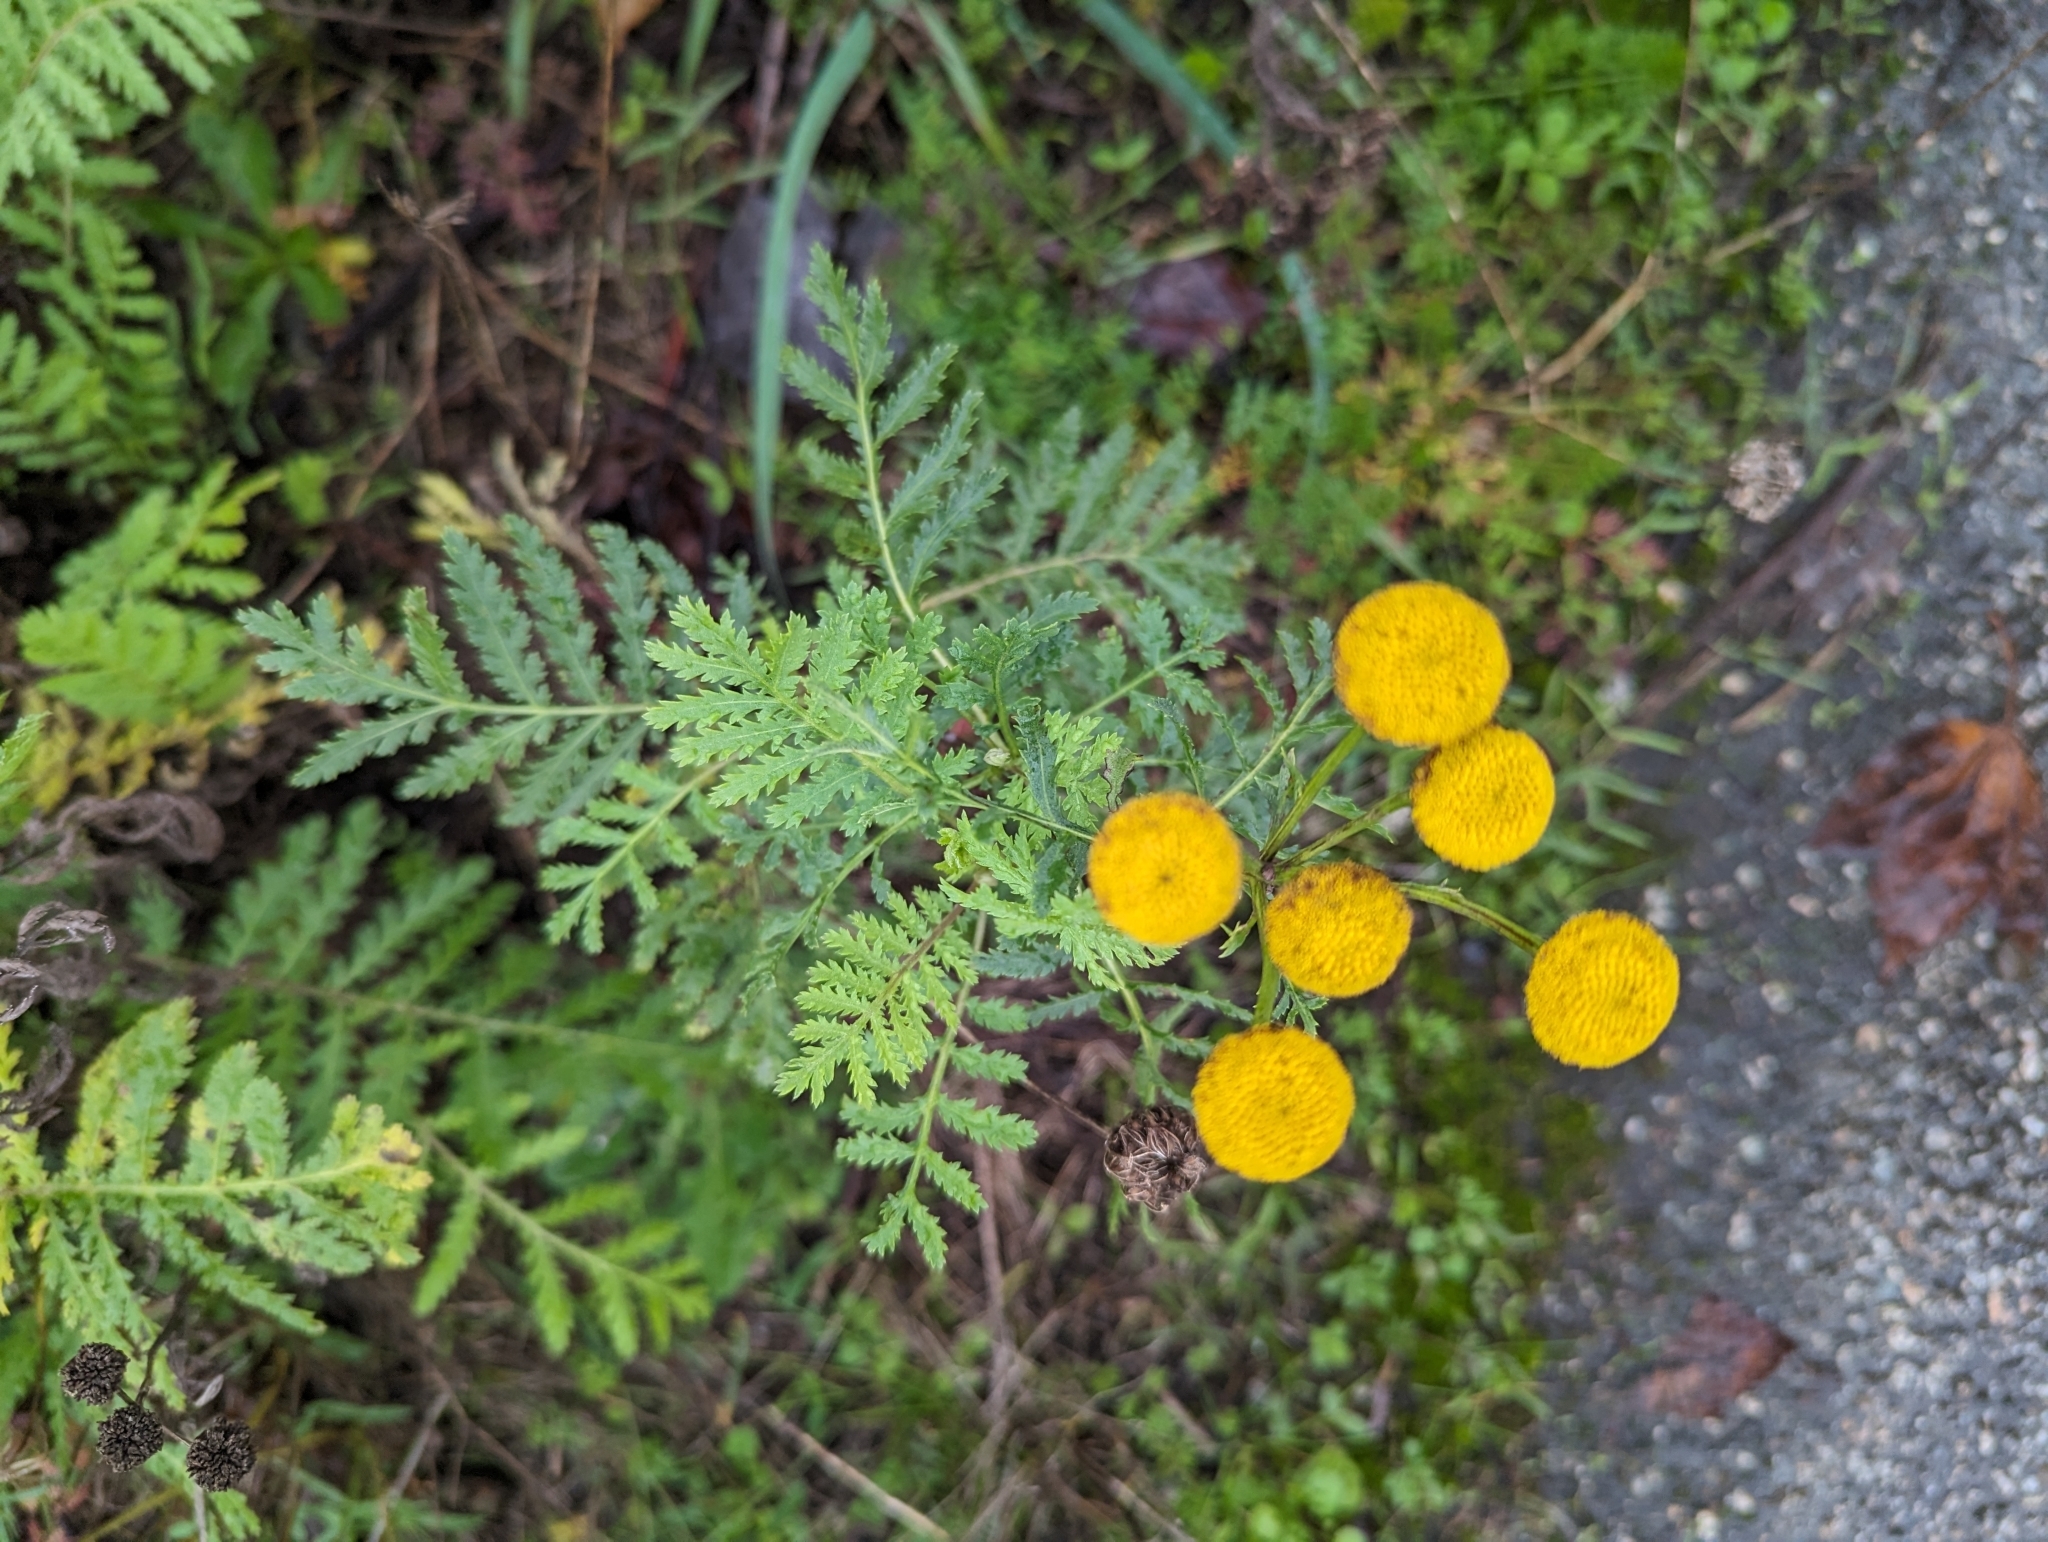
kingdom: Plantae
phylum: Tracheophyta
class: Magnoliopsida
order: Asterales
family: Asteraceae
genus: Tanacetum
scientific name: Tanacetum vulgare
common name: Common tansy
